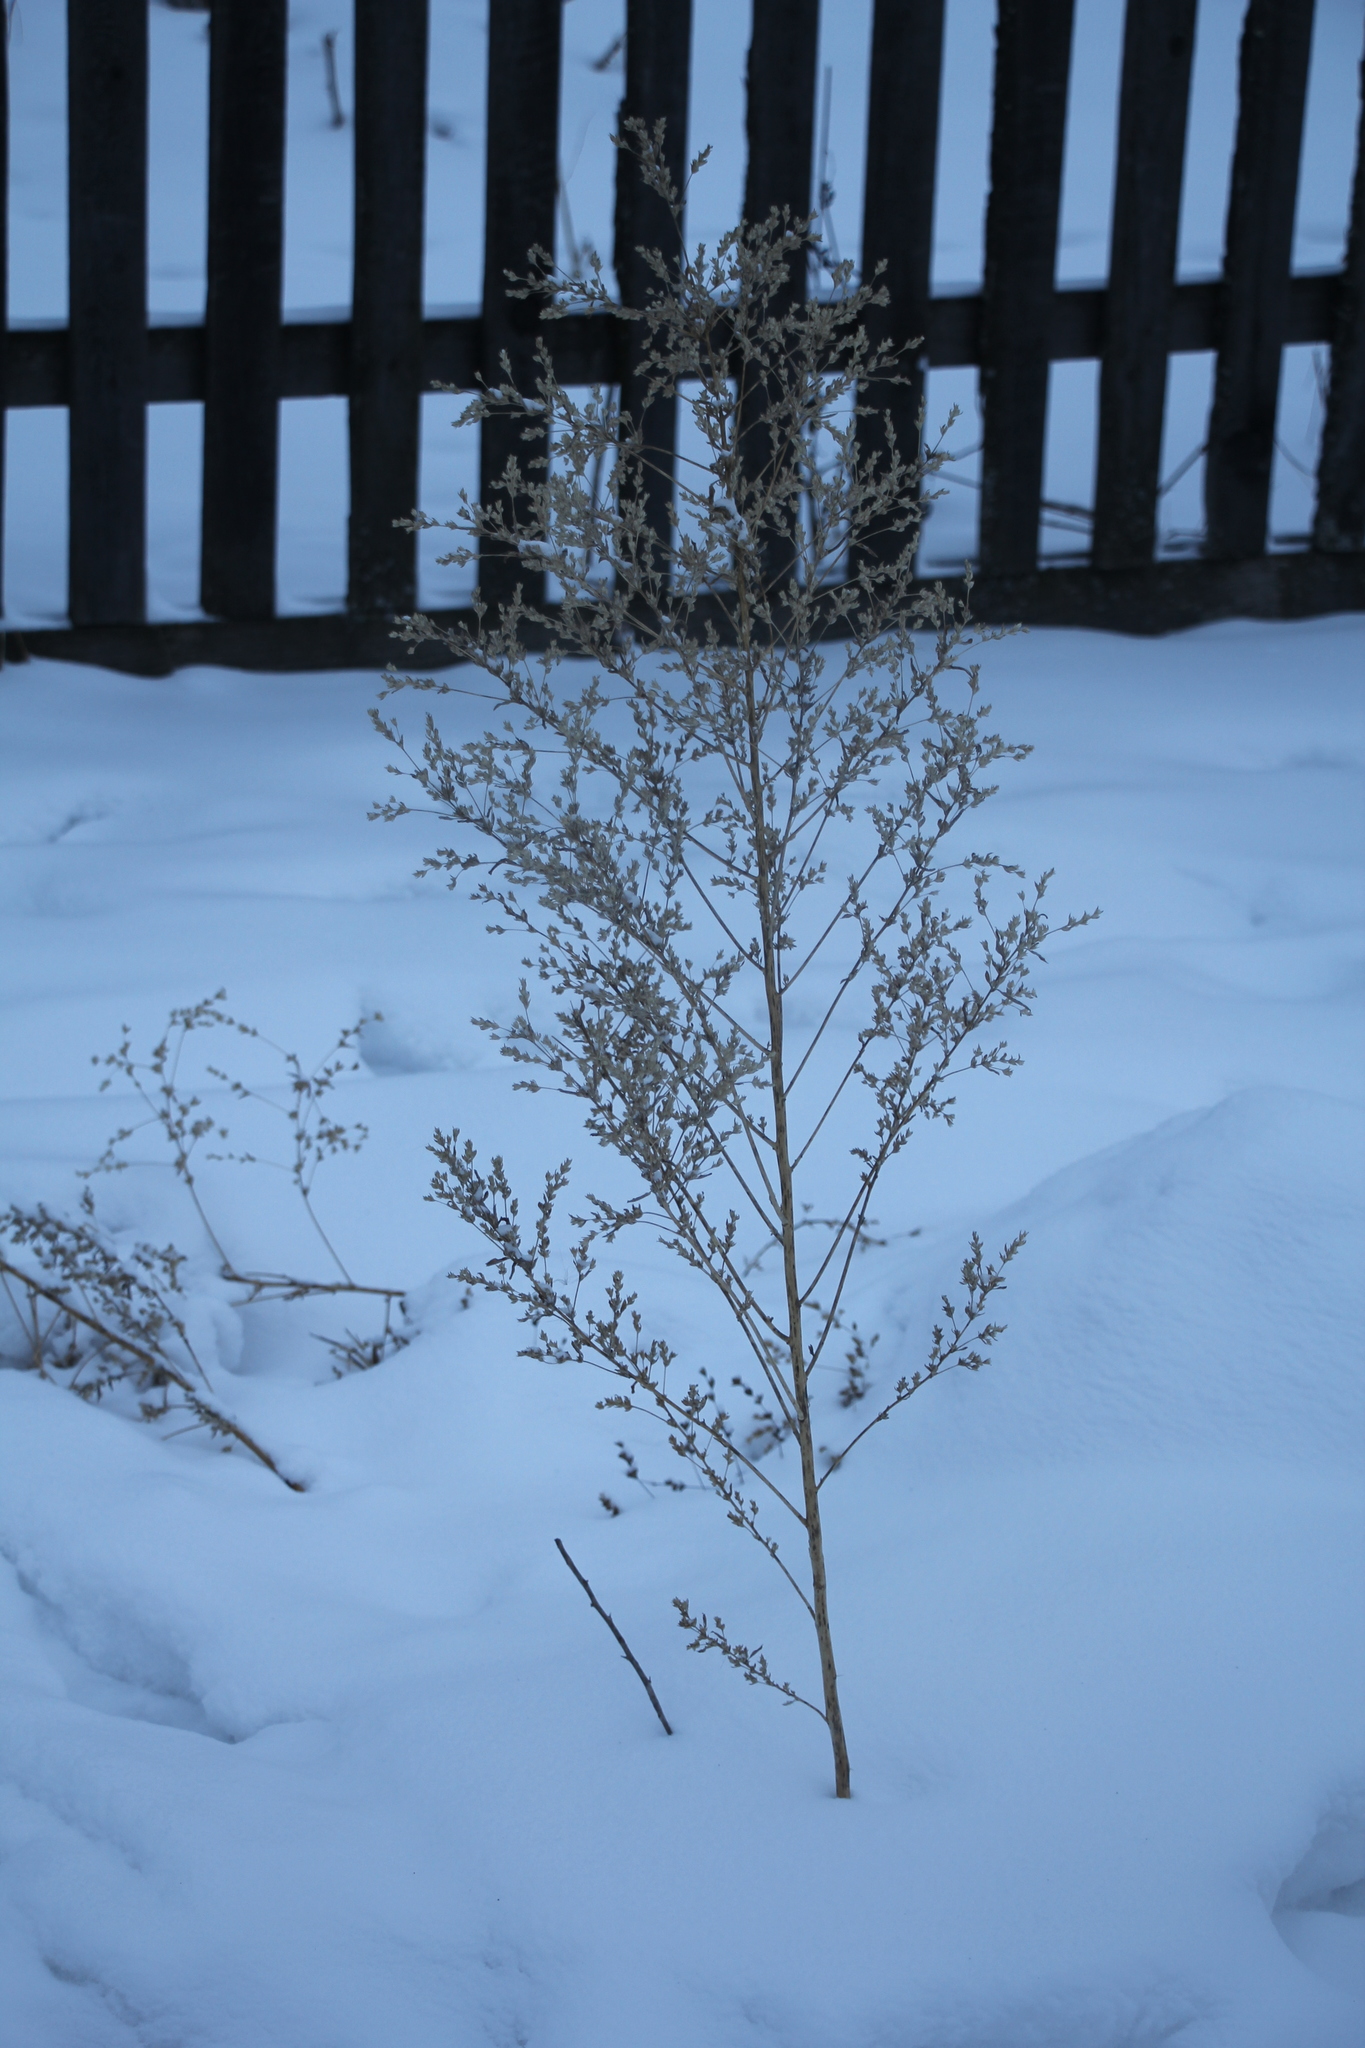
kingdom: Plantae
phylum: Tracheophyta
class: Magnoliopsida
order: Caryophyllales
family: Amaranthaceae
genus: Axyris
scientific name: Axyris amaranthoides
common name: Russian pigweed
